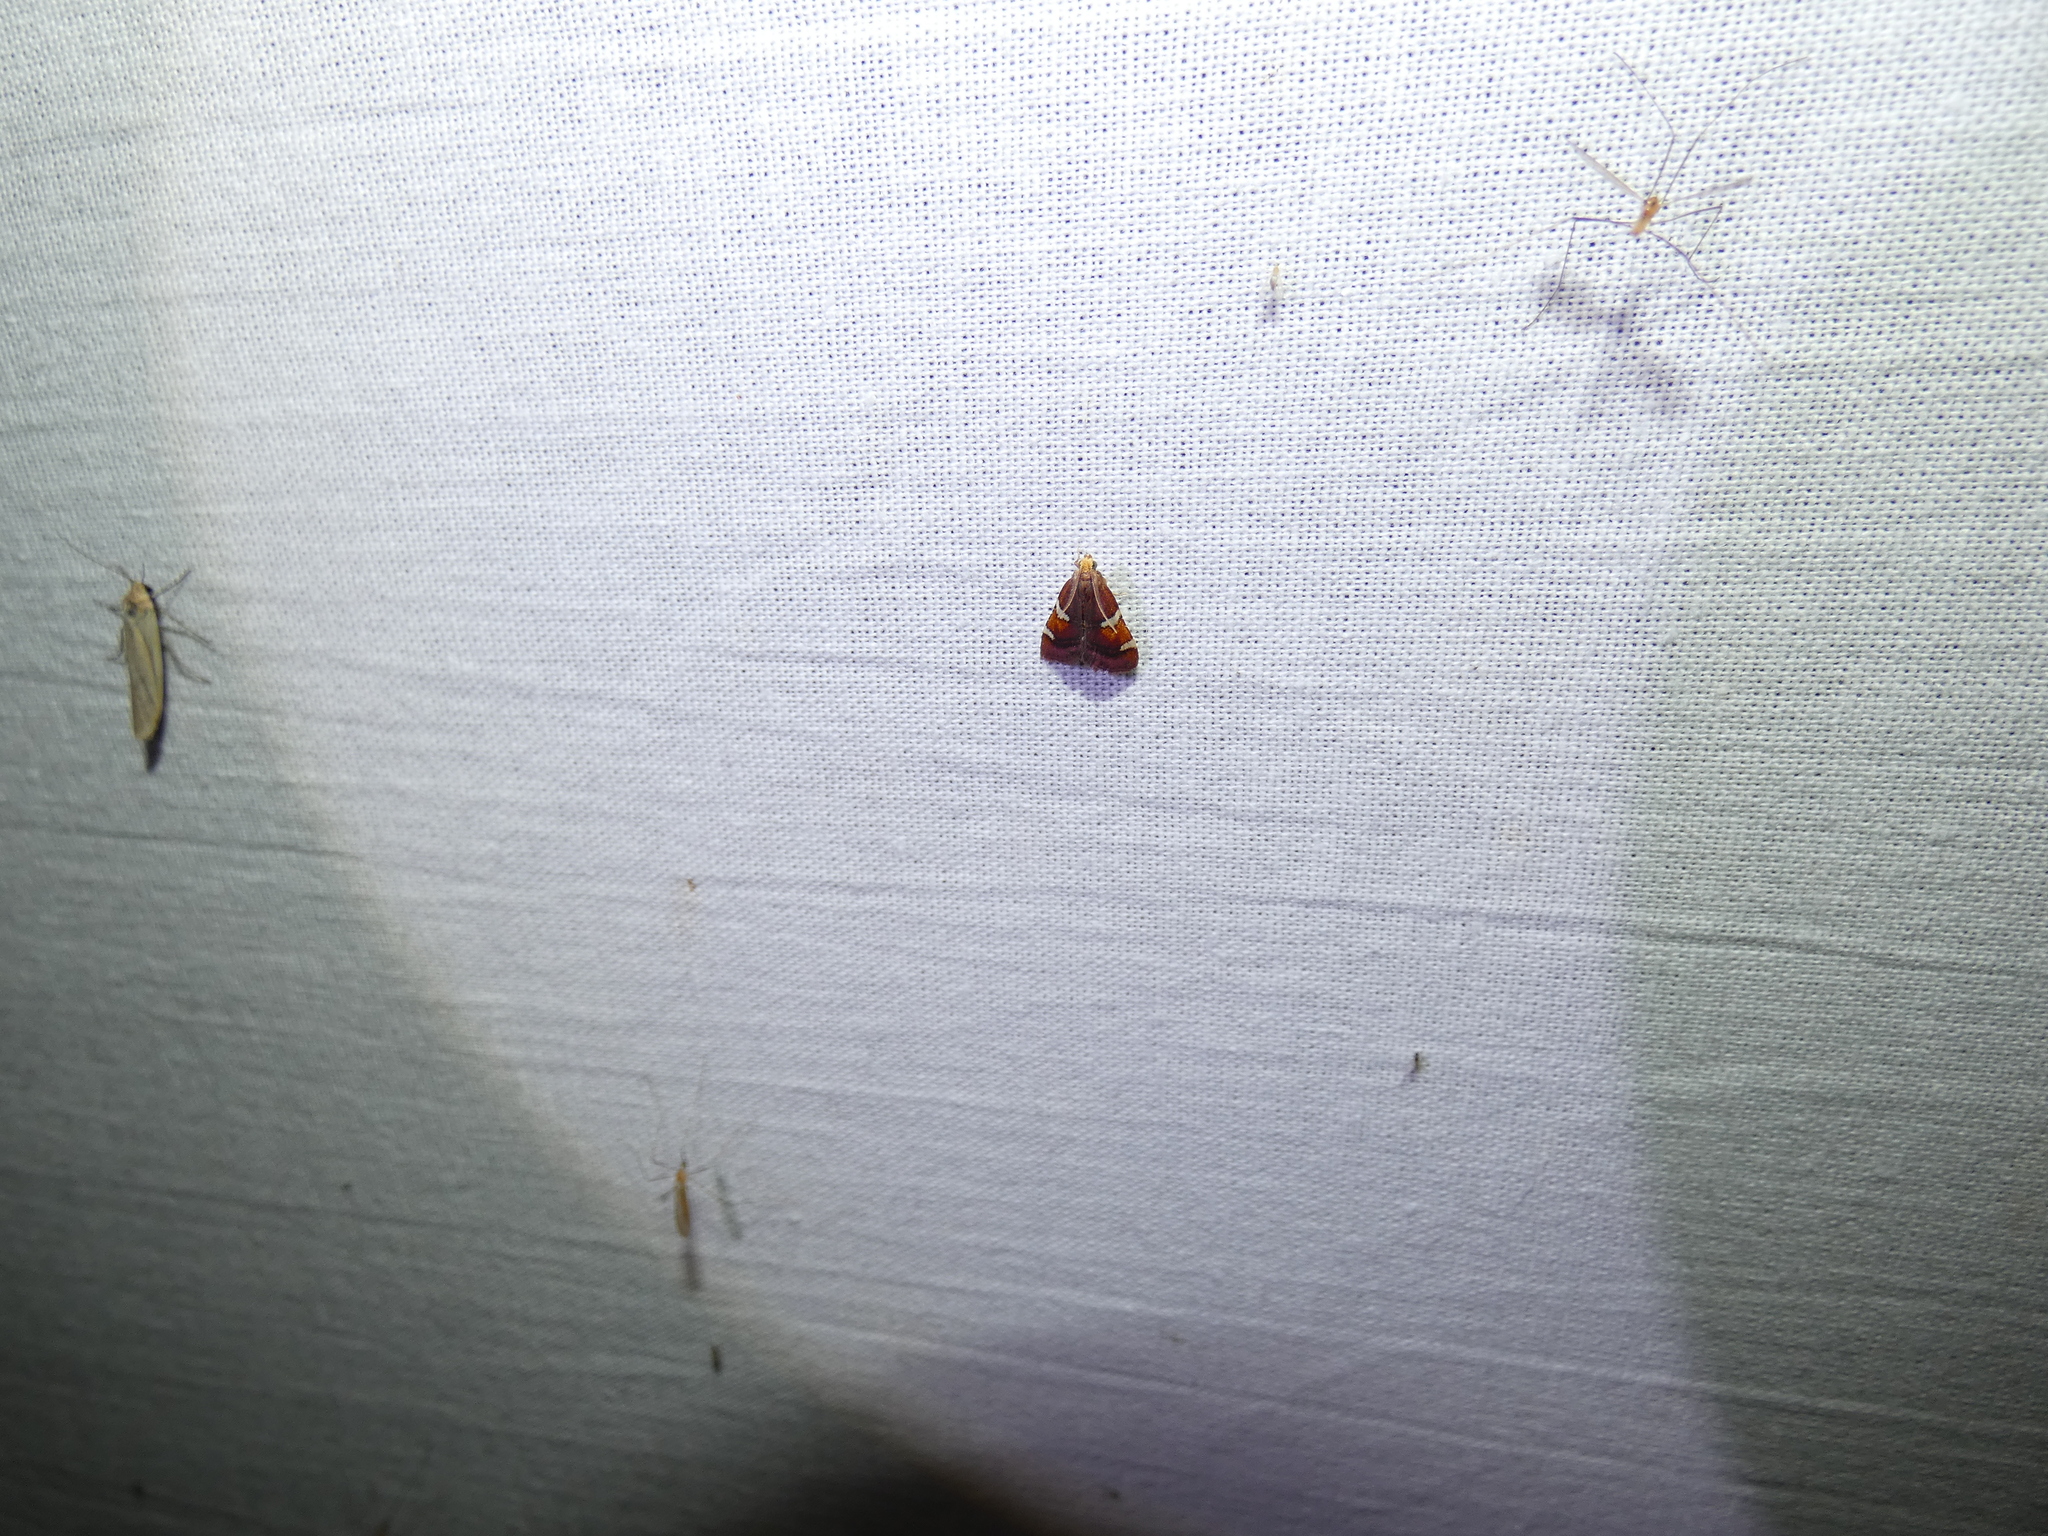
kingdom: Animalia
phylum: Arthropoda
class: Insecta
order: Lepidoptera
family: Pyralidae
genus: Pyralis
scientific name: Pyralis cardinalis
